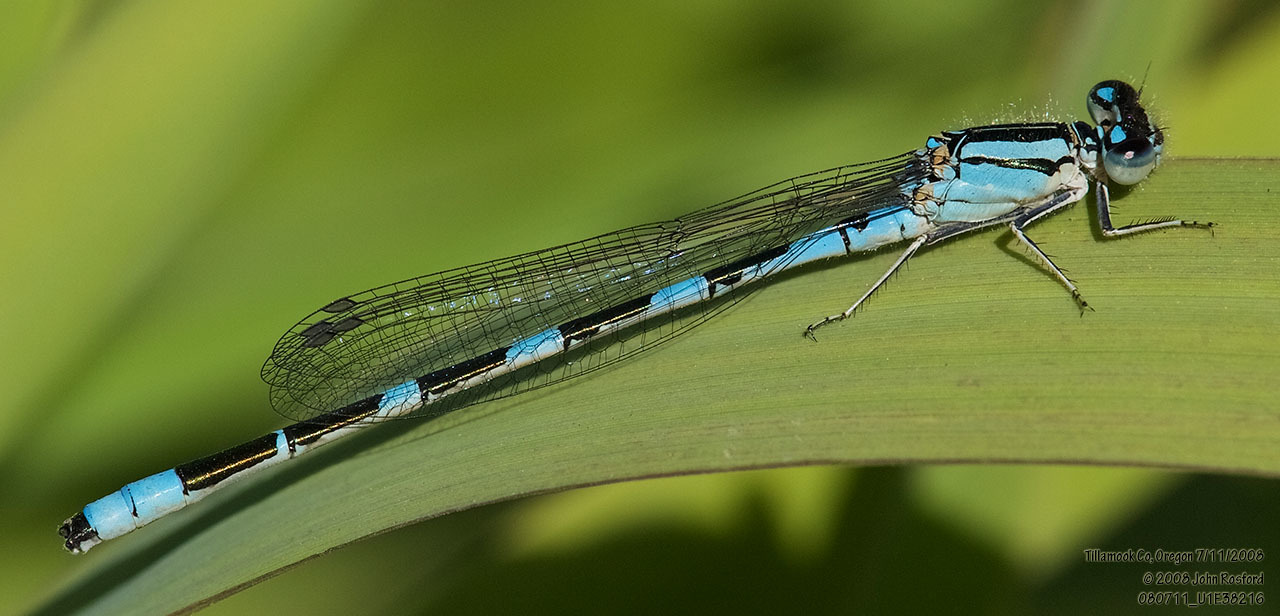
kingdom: Animalia
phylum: Arthropoda
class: Insecta
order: Odonata
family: Coenagrionidae
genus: Enallagma
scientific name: Enallagma carunculatum
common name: Tule bluet
